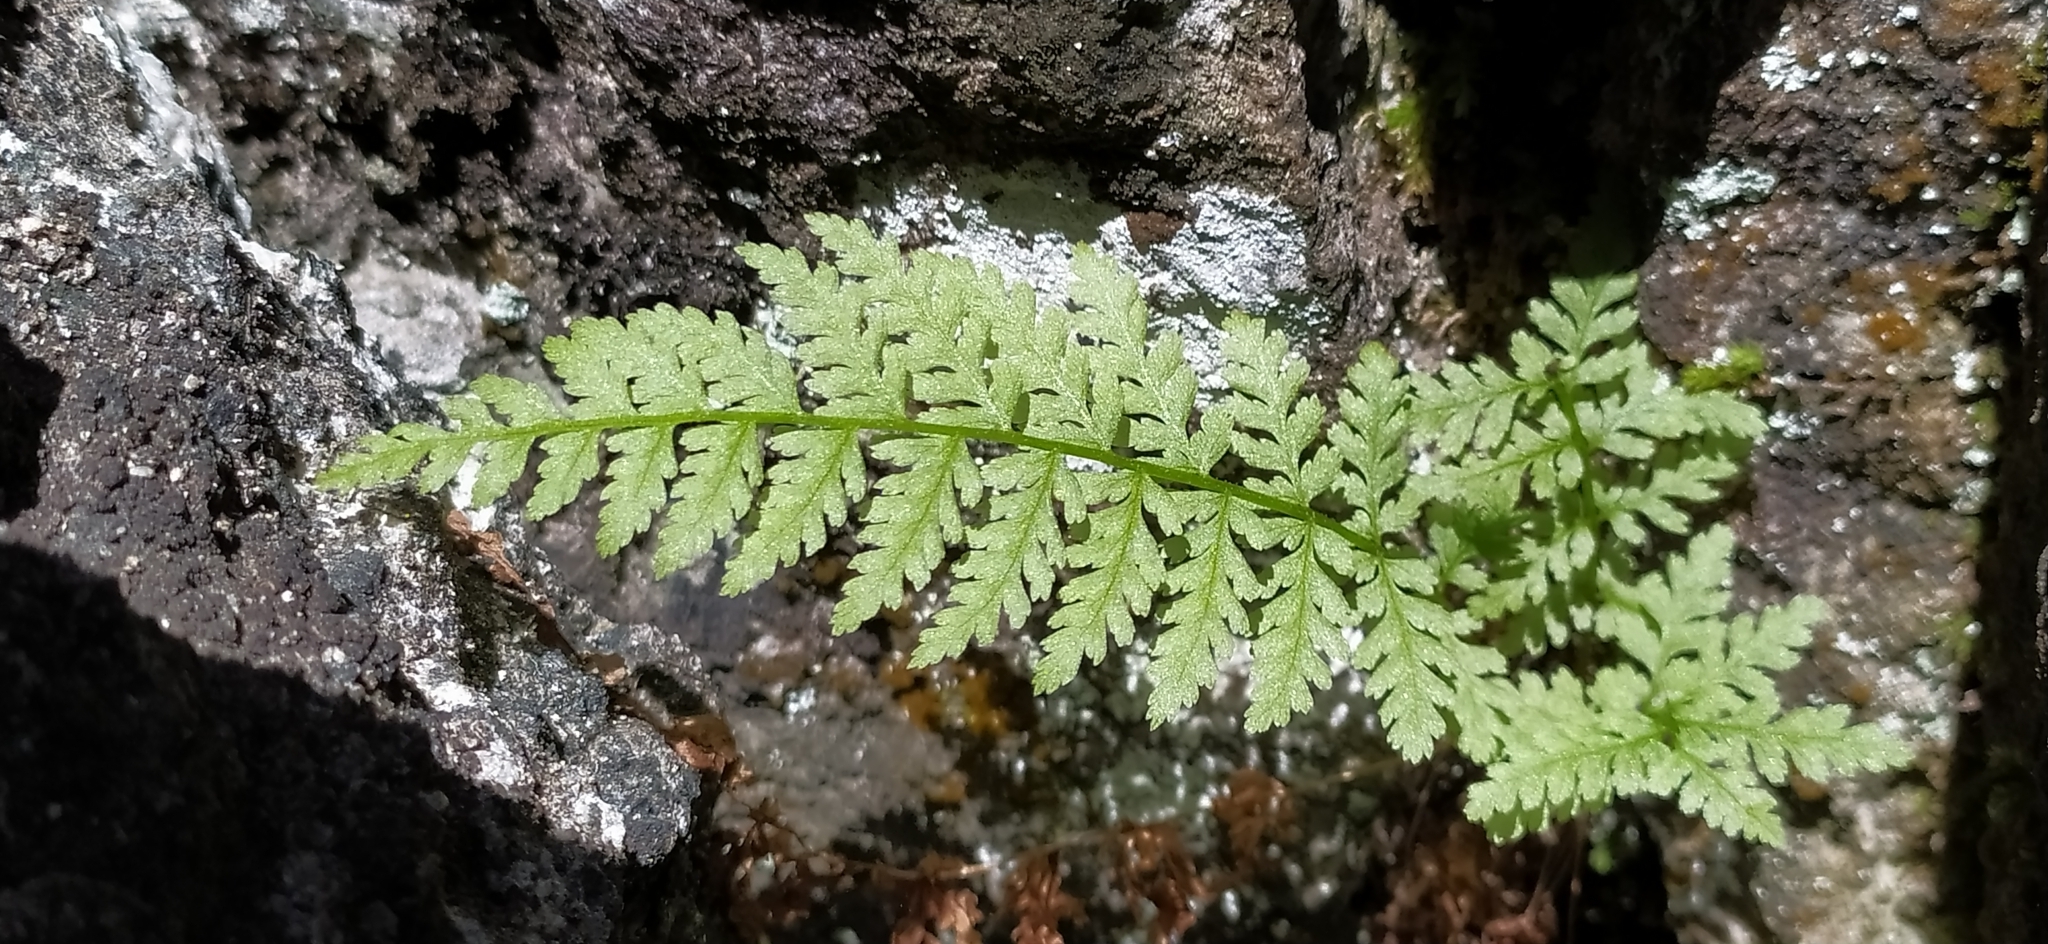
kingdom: Plantae
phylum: Tracheophyta
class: Polypodiopsida
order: Polypodiales
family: Cystopteridaceae
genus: Cystopteris
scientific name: Cystopteris fragilis
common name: Brittle bladder fern
